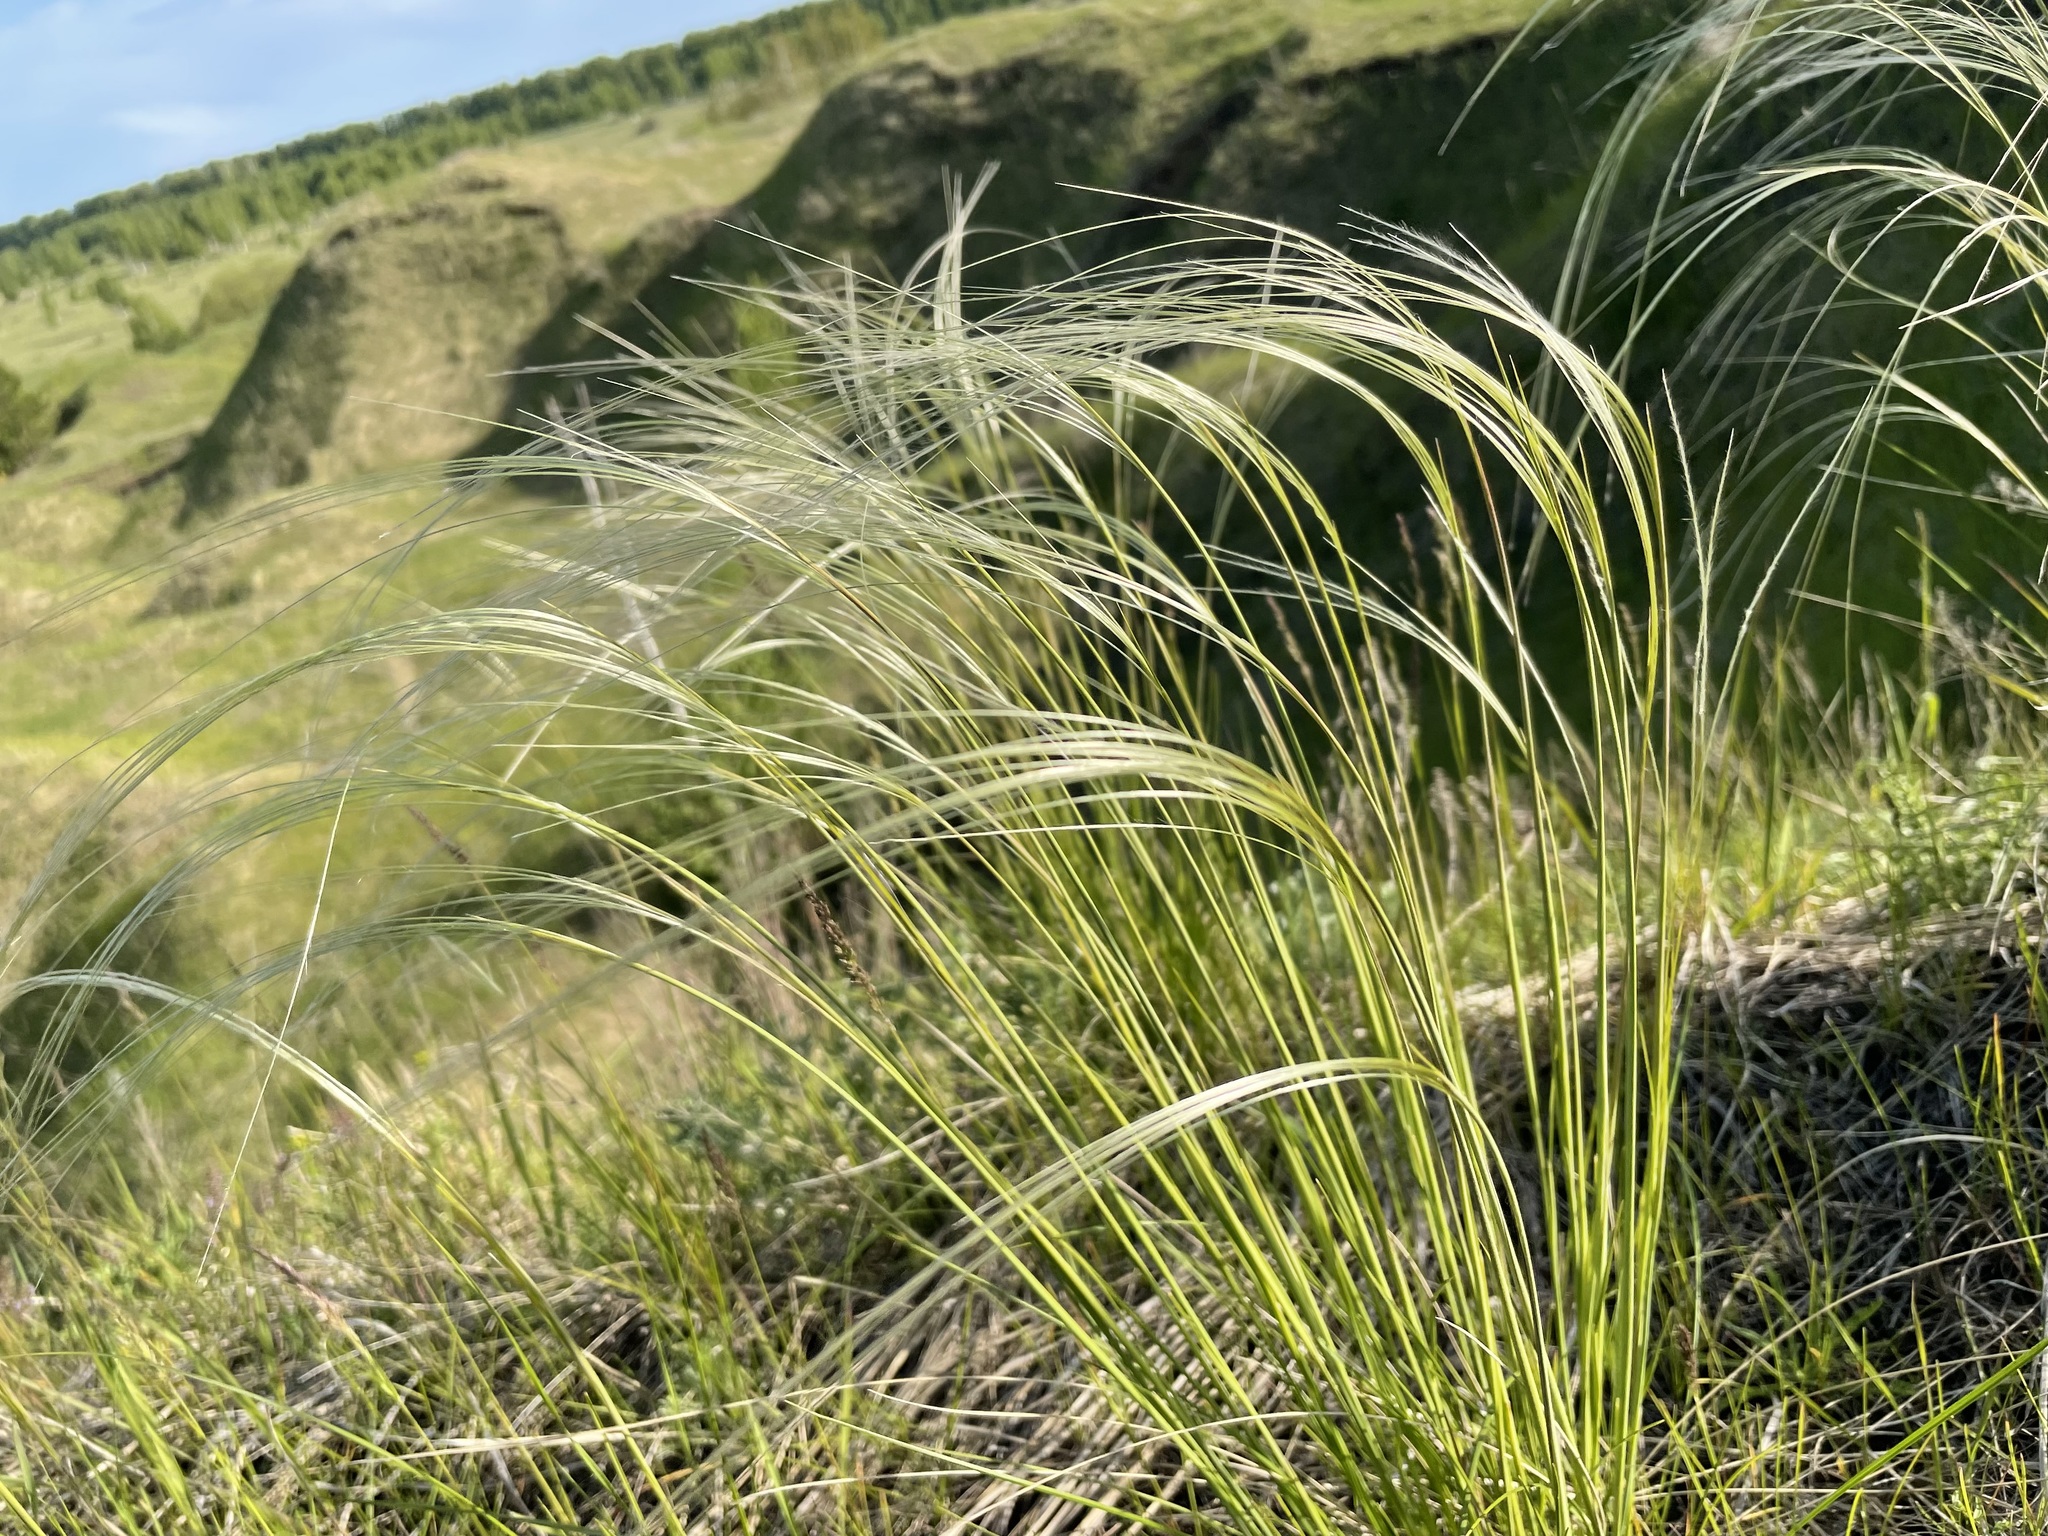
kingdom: Plantae
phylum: Tracheophyta
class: Liliopsida
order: Poales
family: Poaceae
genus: Stipa
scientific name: Stipa pennata
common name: European feather grass
